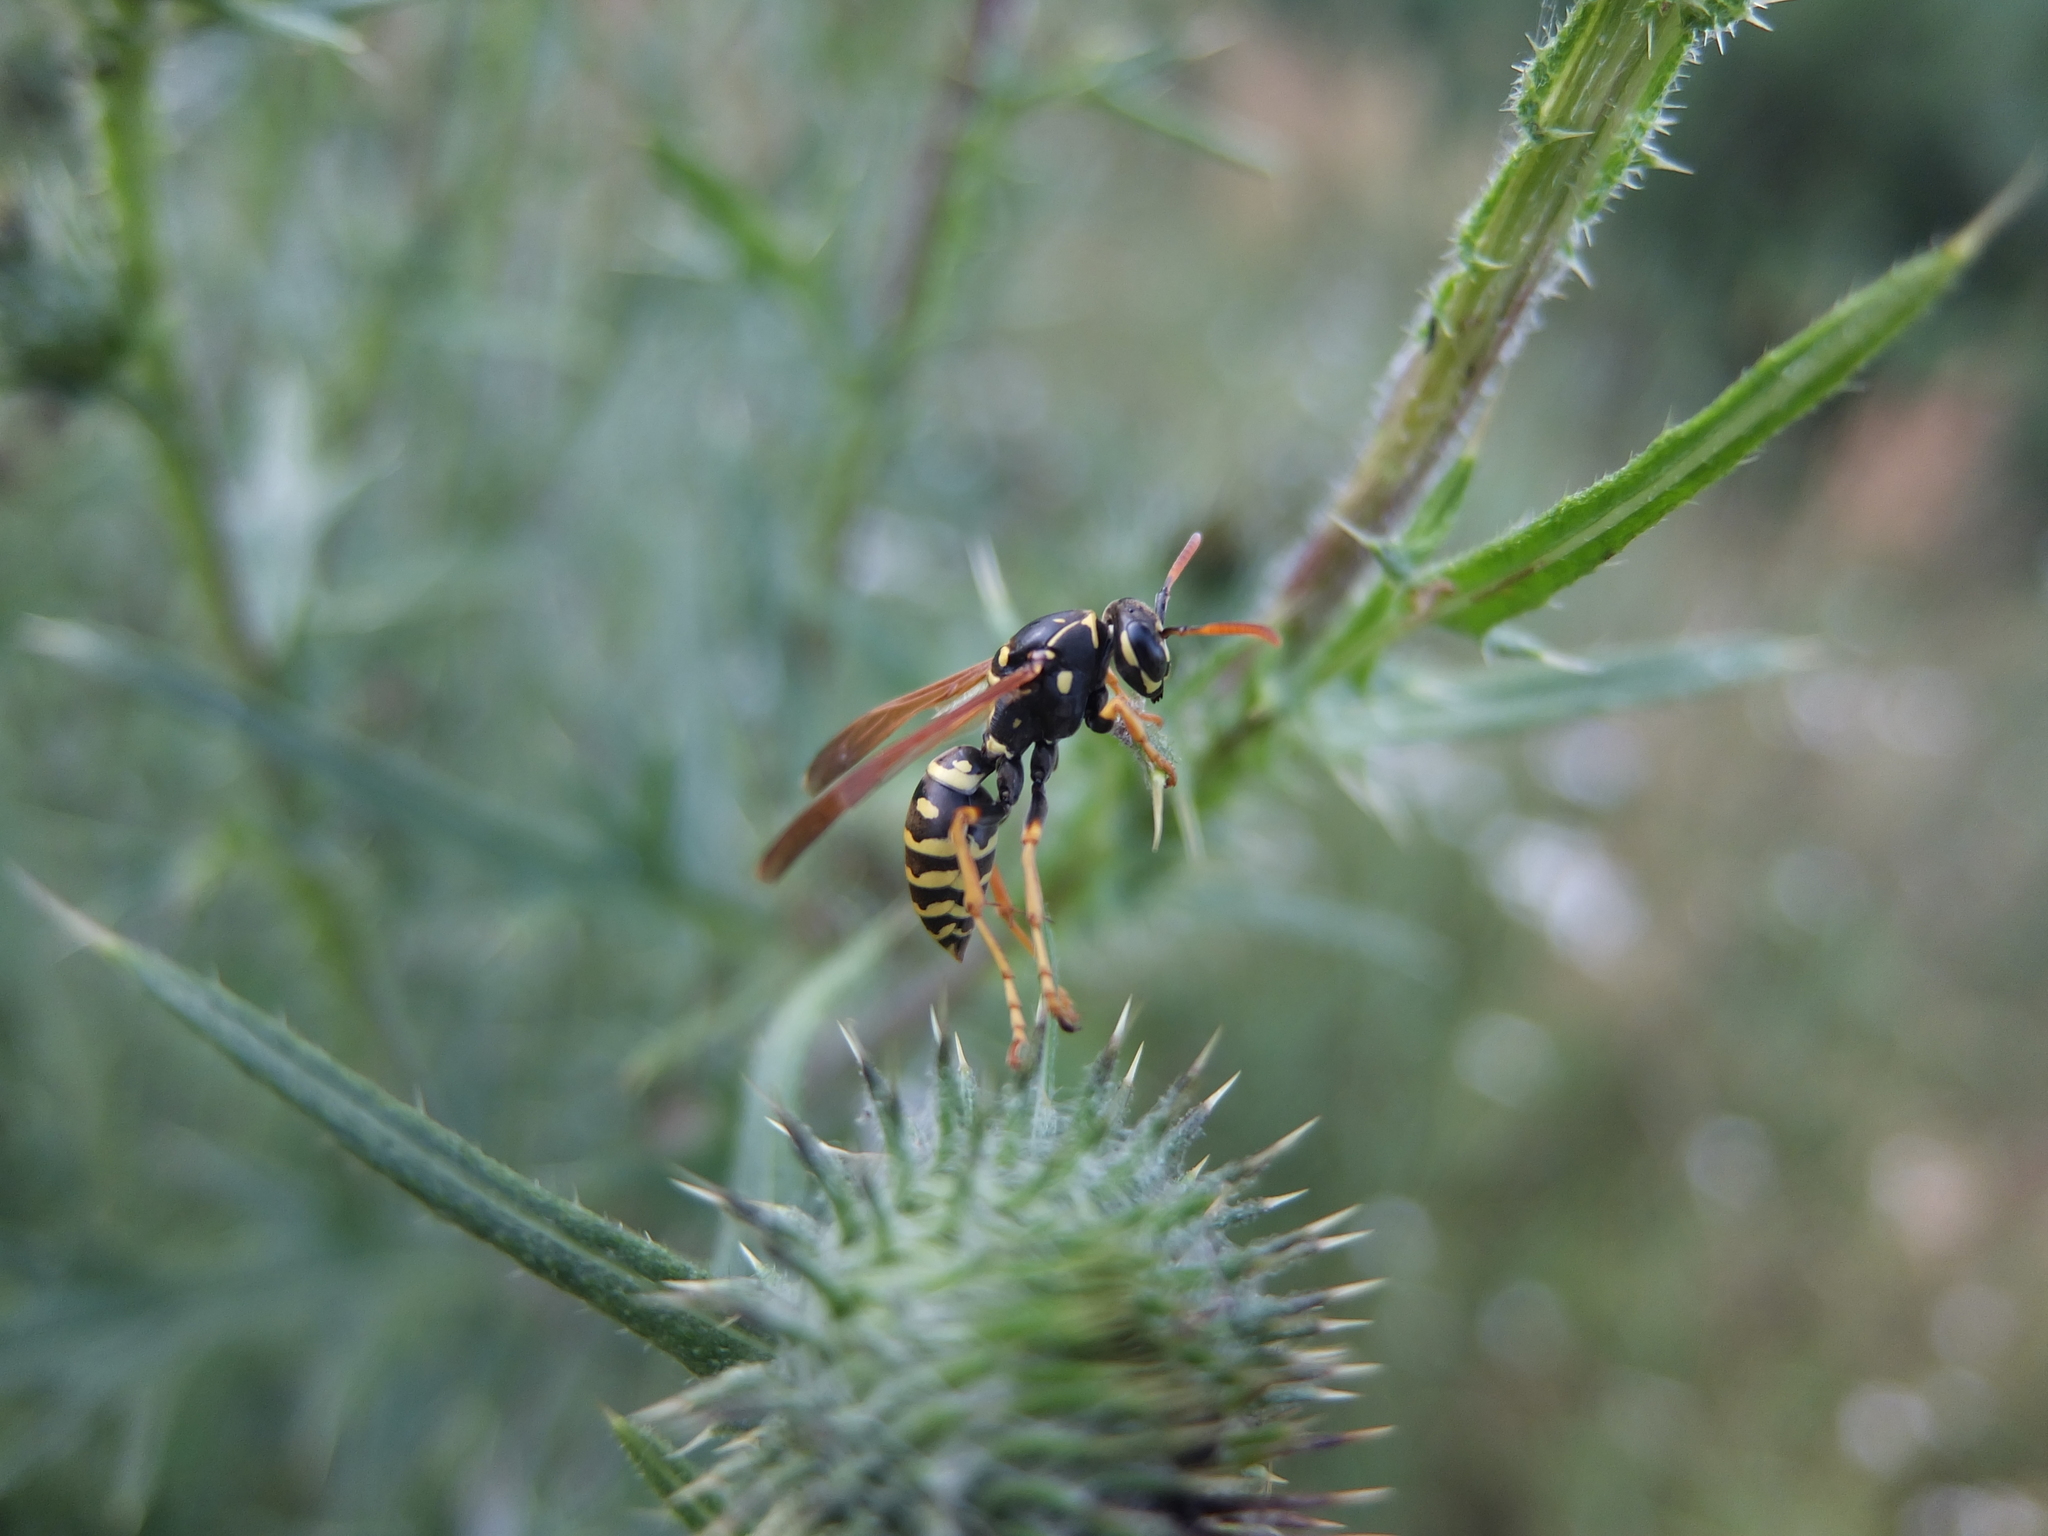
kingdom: Animalia
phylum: Arthropoda
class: Insecta
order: Hymenoptera
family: Eumenidae
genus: Polistes
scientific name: Polistes nimpha
